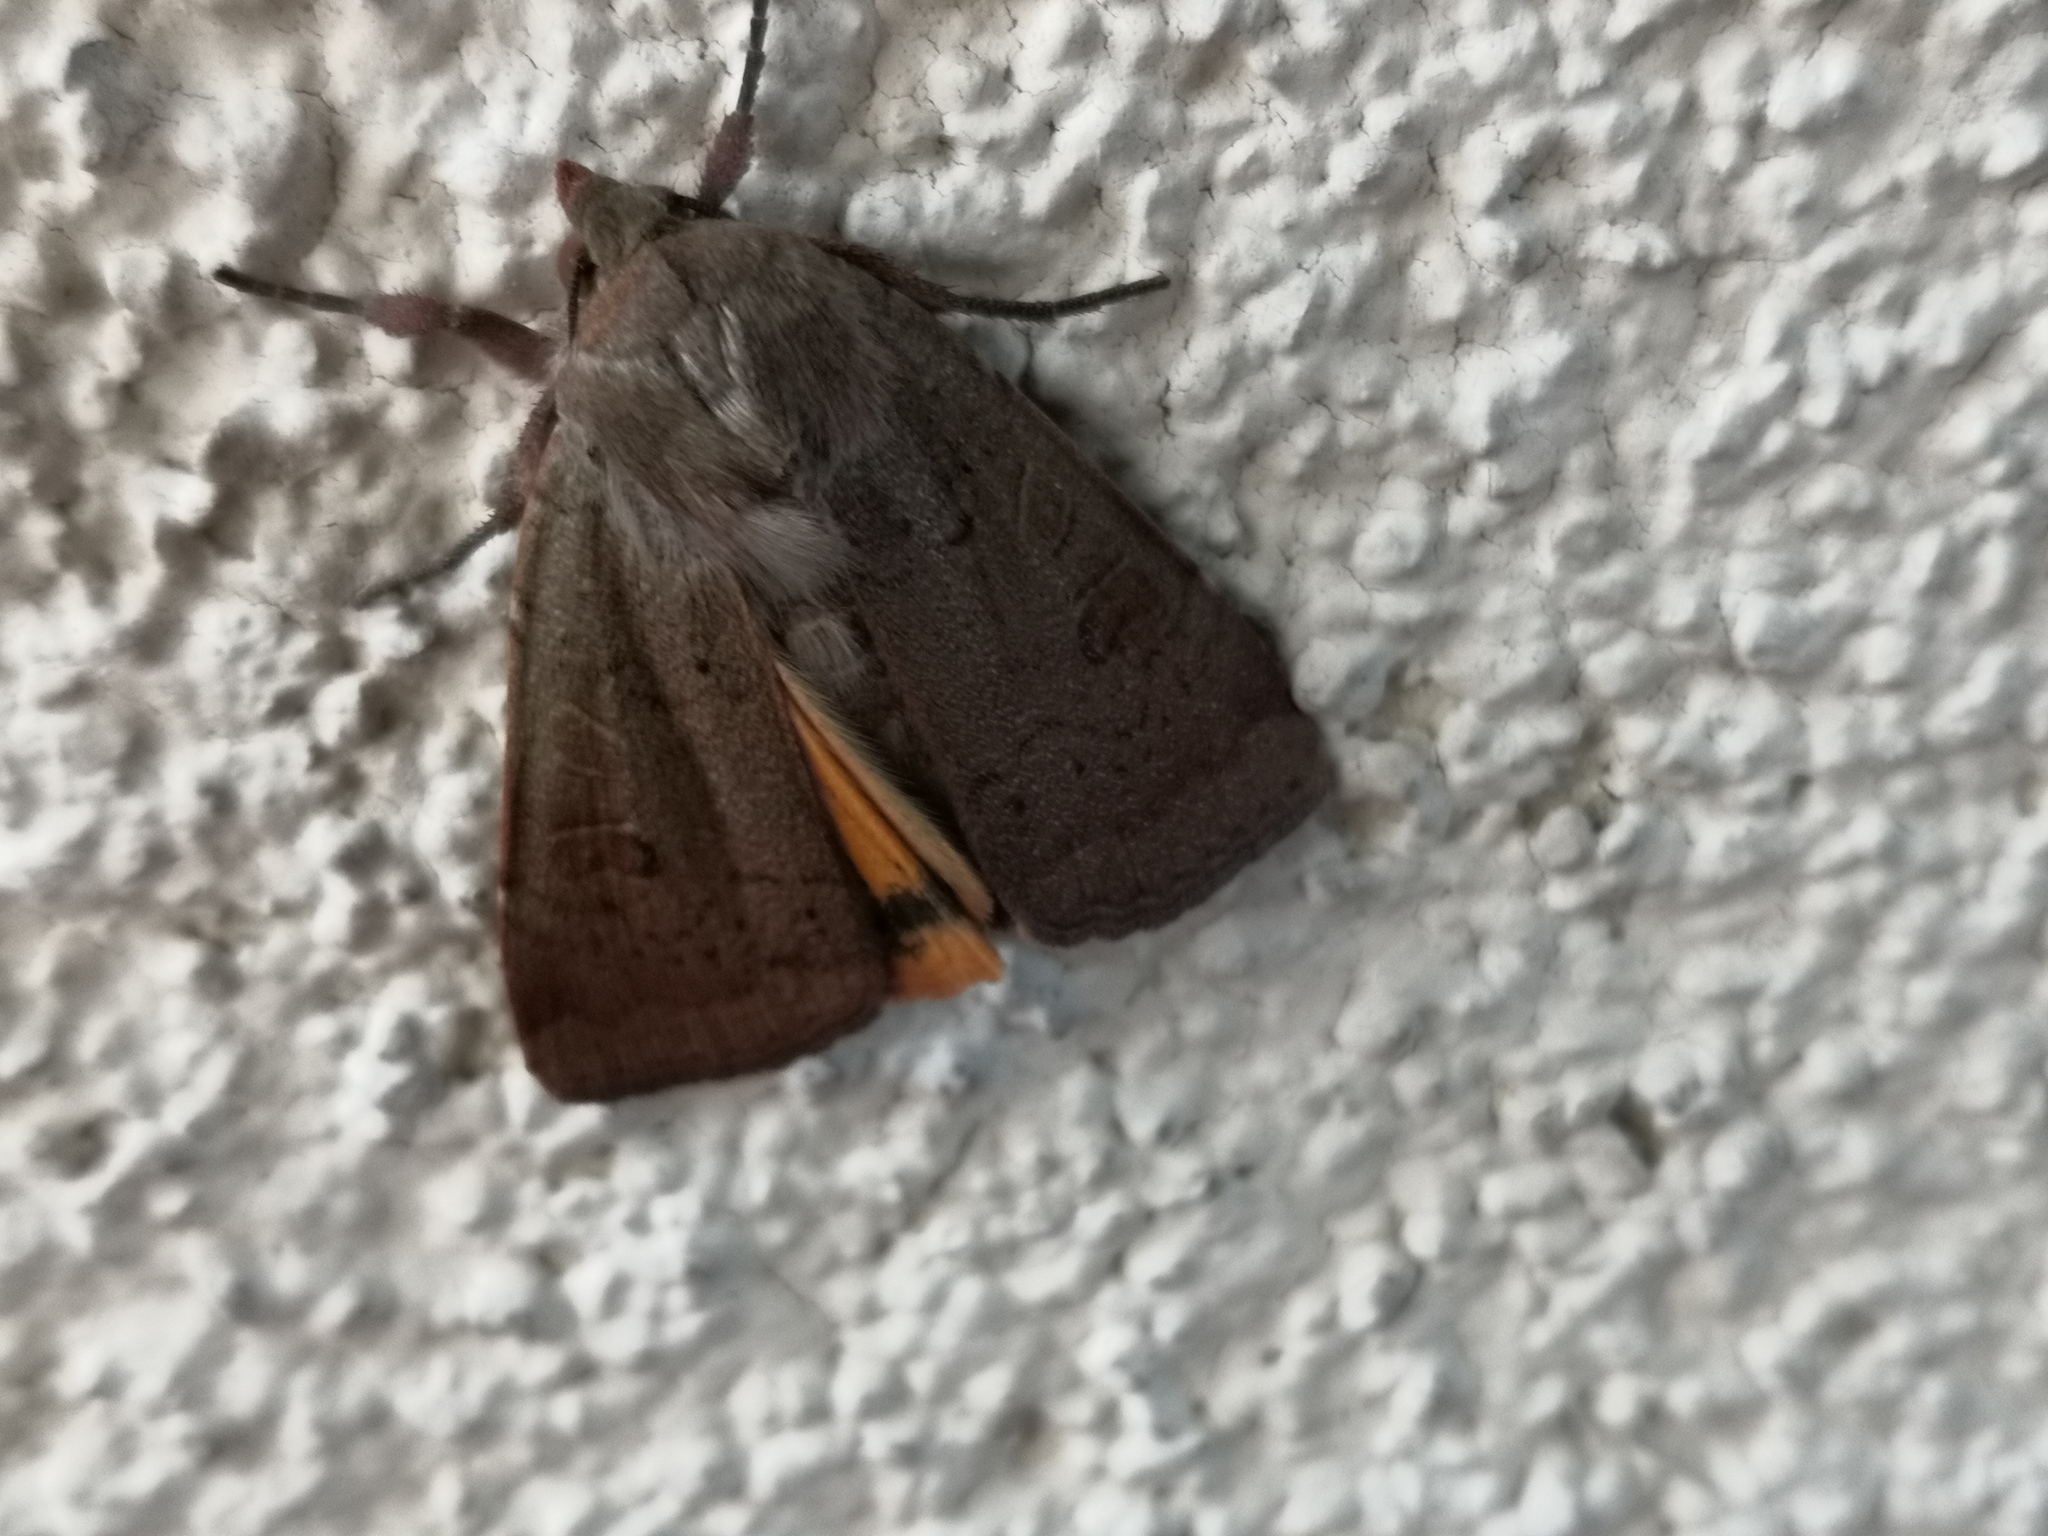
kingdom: Animalia
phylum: Arthropoda
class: Insecta
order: Lepidoptera
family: Noctuidae
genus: Noctua
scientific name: Noctua comes
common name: Lesser yellow underwing
